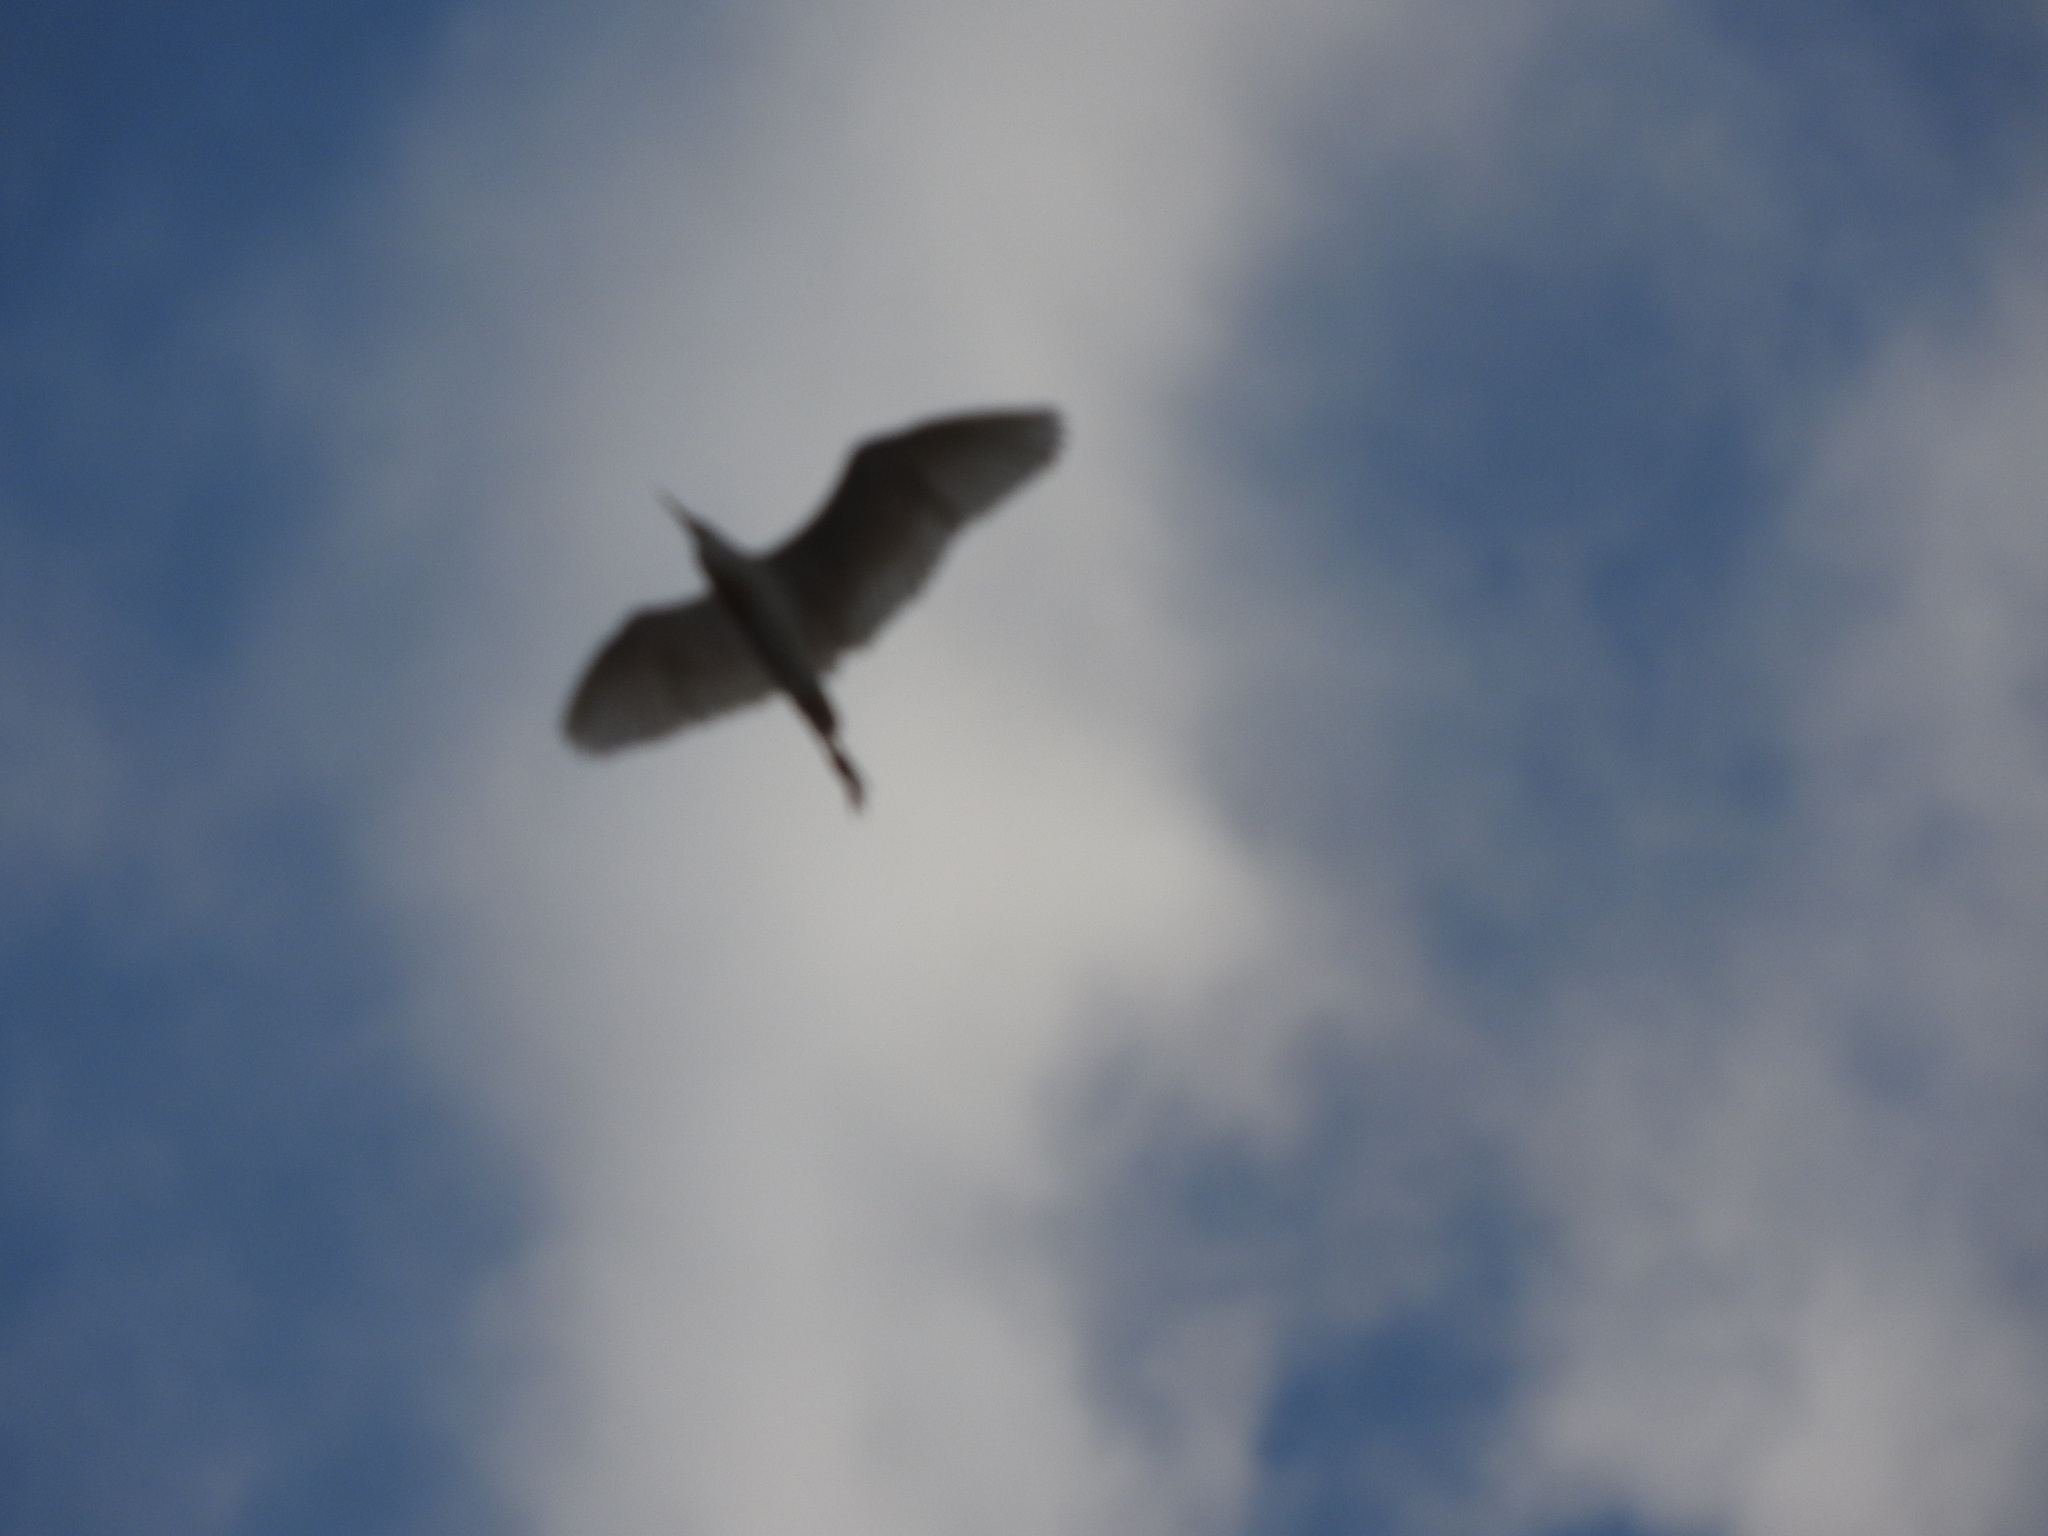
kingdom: Animalia
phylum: Chordata
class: Aves
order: Pelecaniformes
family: Ardeidae
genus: Bubulcus
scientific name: Bubulcus ibis
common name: Cattle egret
